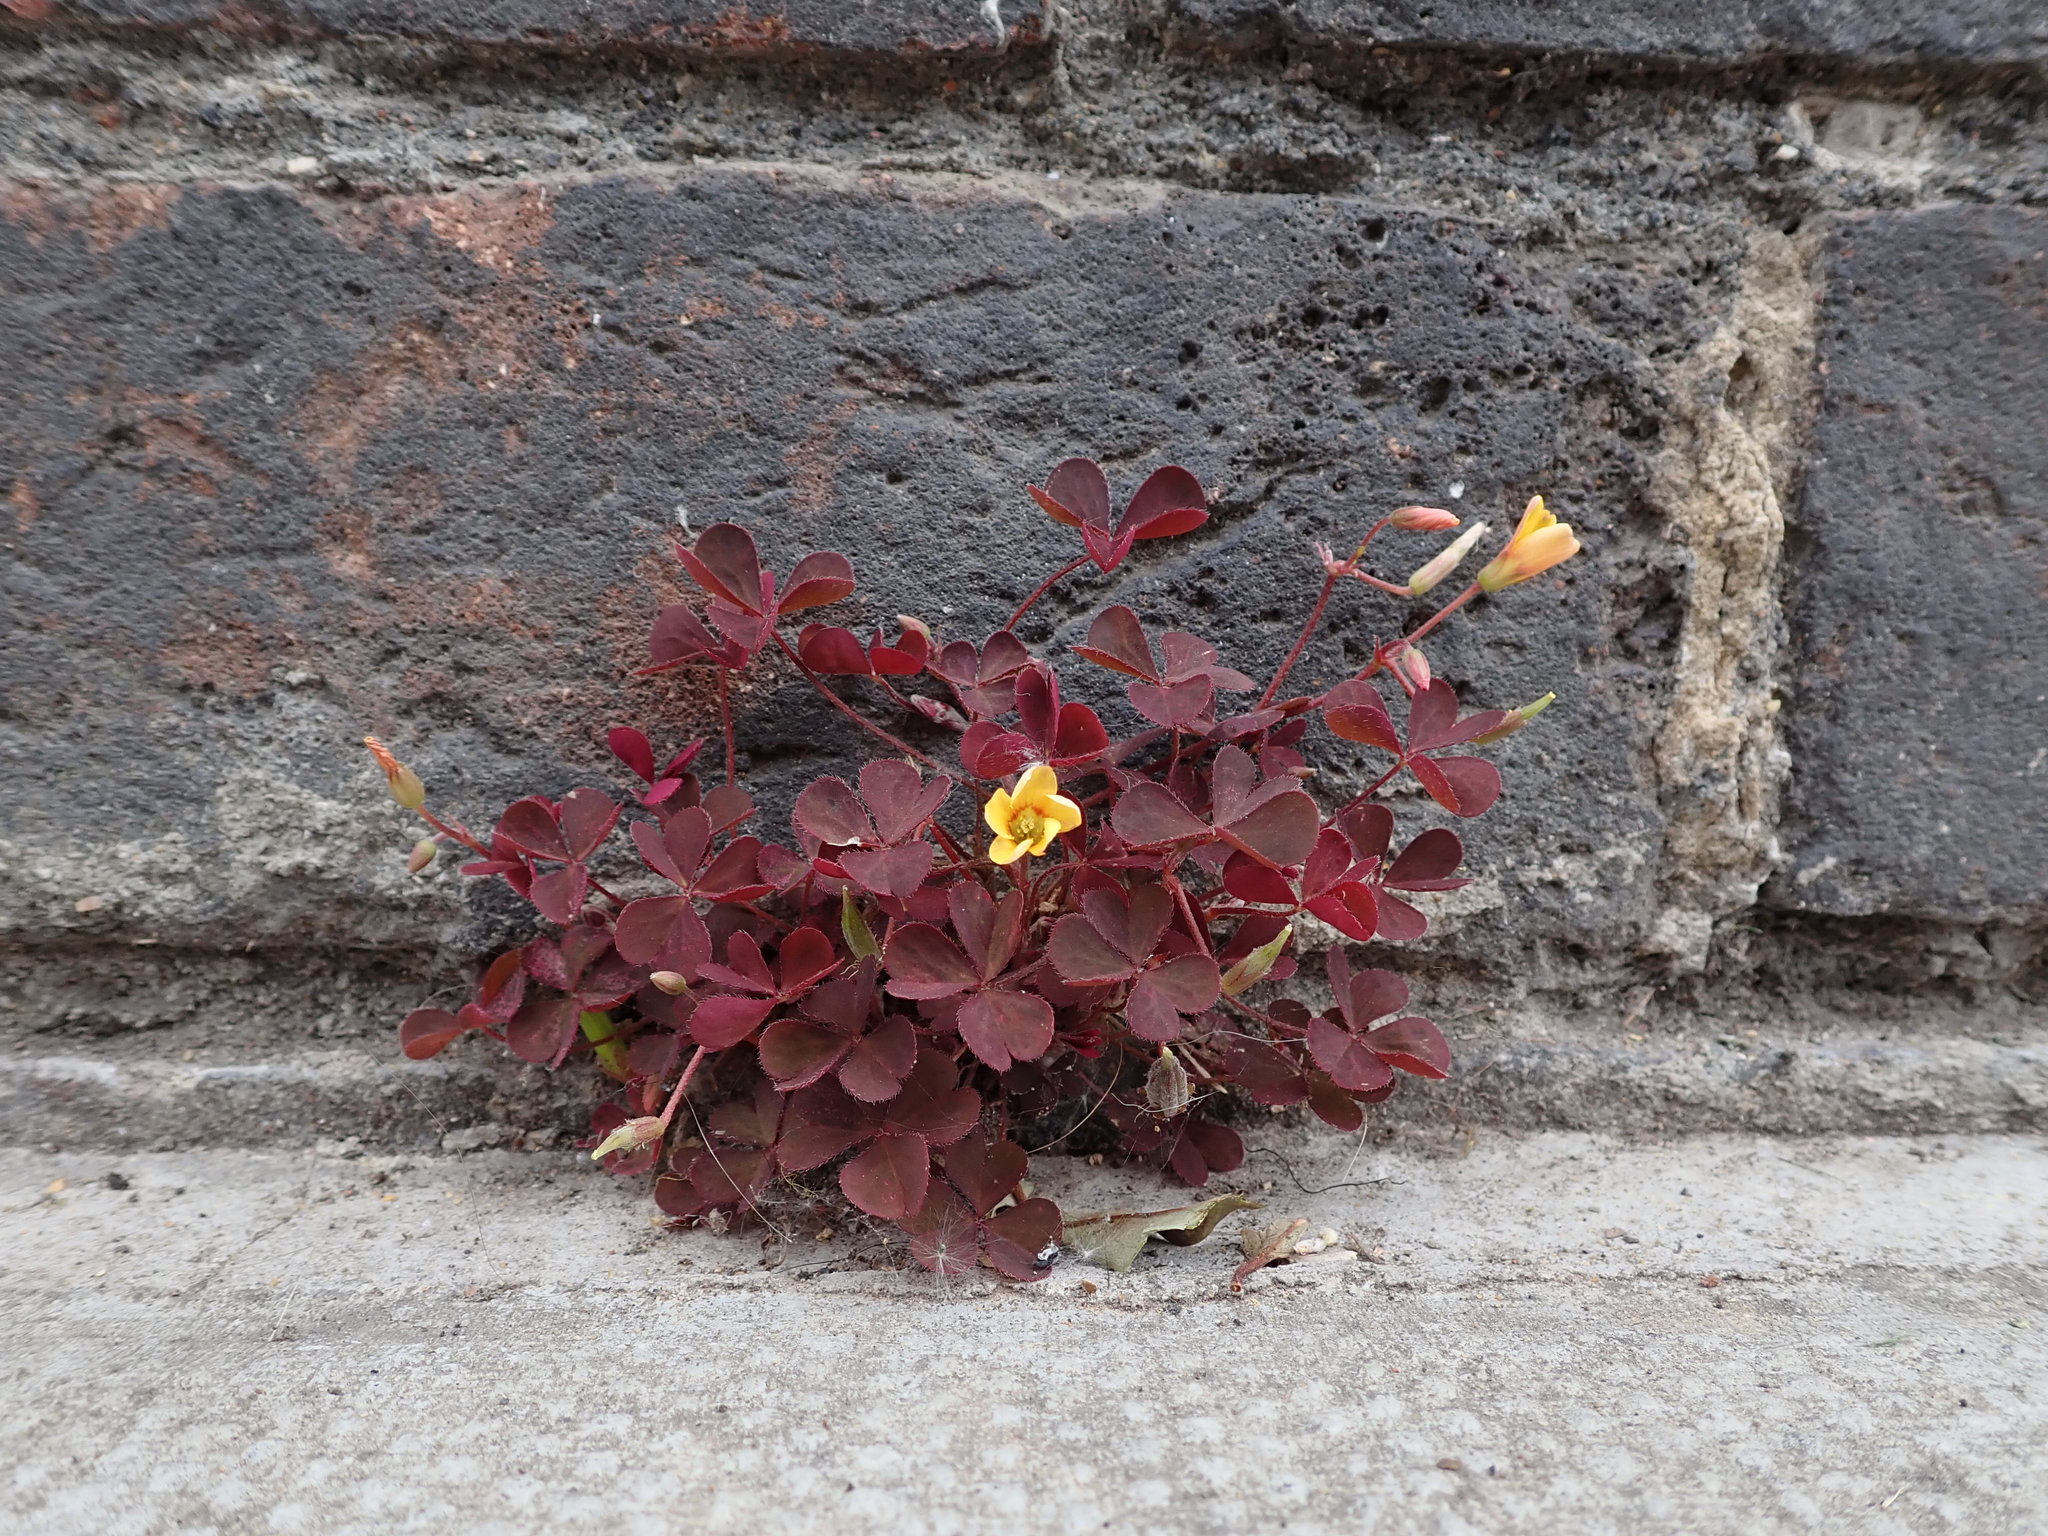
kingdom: Plantae
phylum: Tracheophyta
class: Magnoliopsida
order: Oxalidales
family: Oxalidaceae
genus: Oxalis
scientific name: Oxalis corniculata
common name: Procumbent yellow-sorrel
